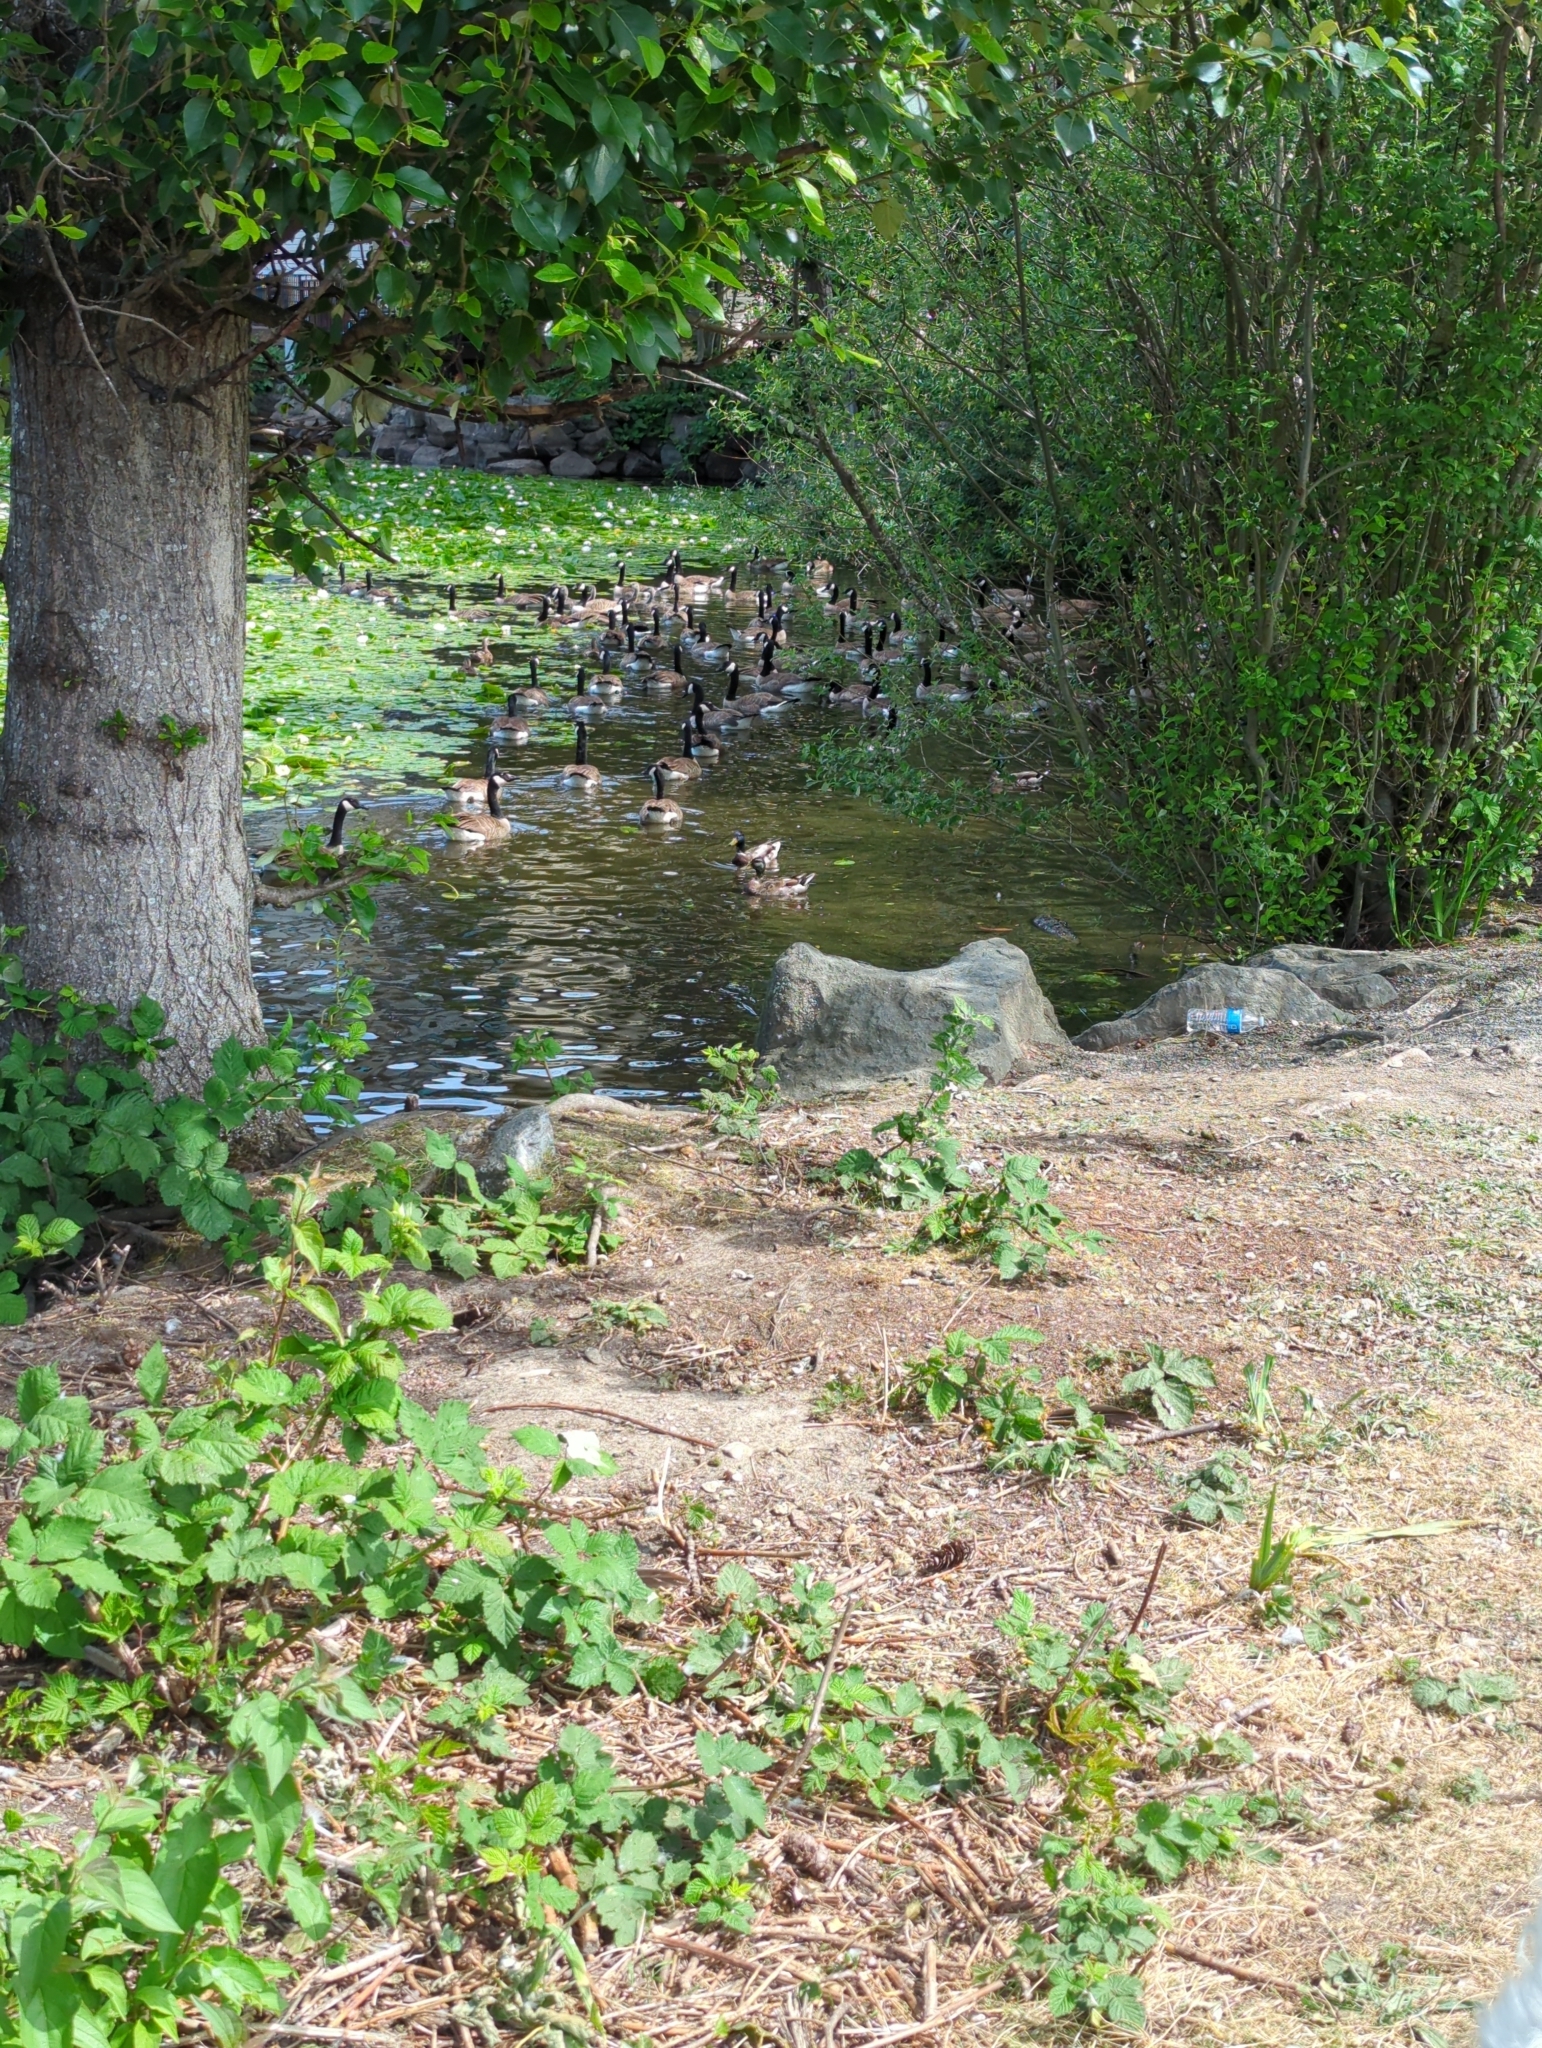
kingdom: Animalia
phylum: Chordata
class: Aves
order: Anseriformes
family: Anatidae
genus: Branta
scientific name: Branta canadensis
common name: Canada goose
